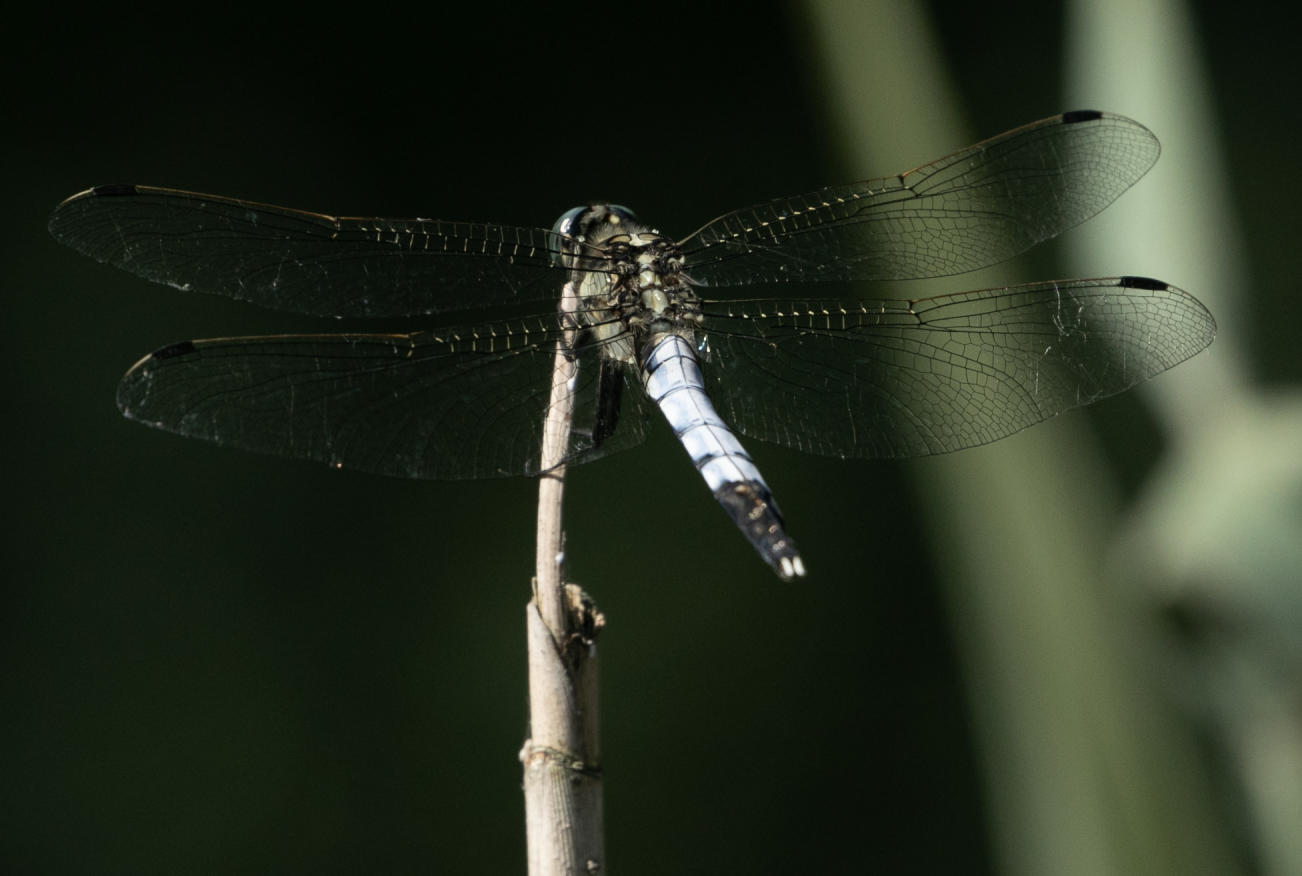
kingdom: Animalia
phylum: Arthropoda
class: Insecta
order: Odonata
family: Libellulidae
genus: Orthetrum
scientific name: Orthetrum albistylum
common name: White-tailed skimmer
